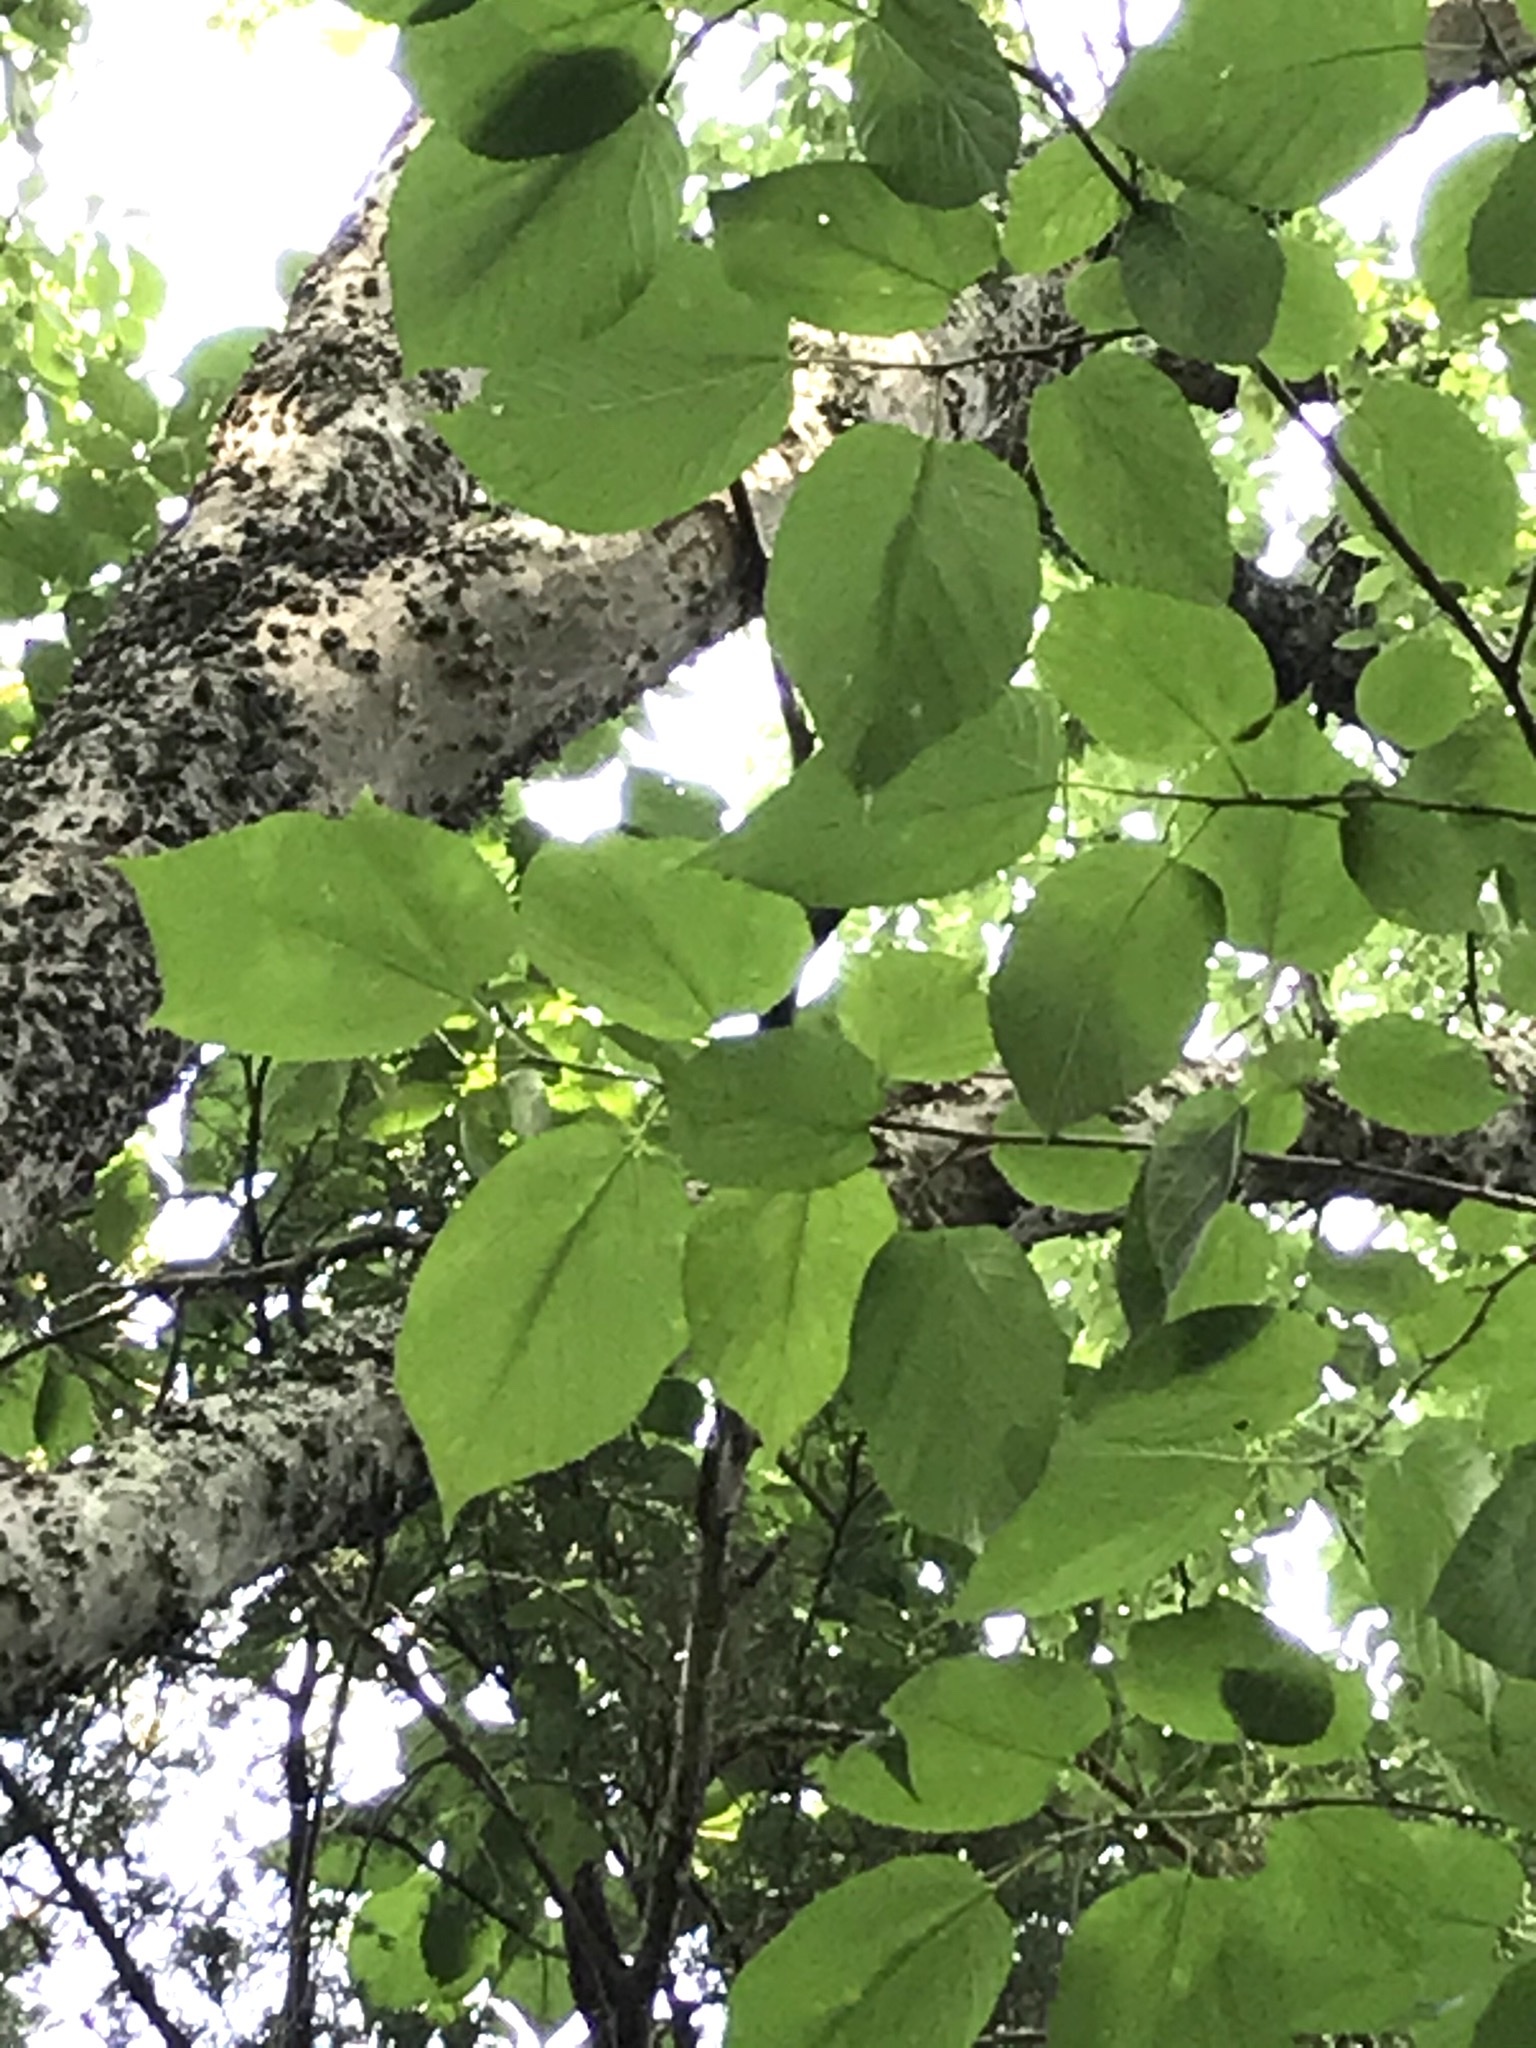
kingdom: Plantae
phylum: Tracheophyta
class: Magnoliopsida
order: Rosales
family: Moraceae
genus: Morus
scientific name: Morus rubra
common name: Red mulberry
